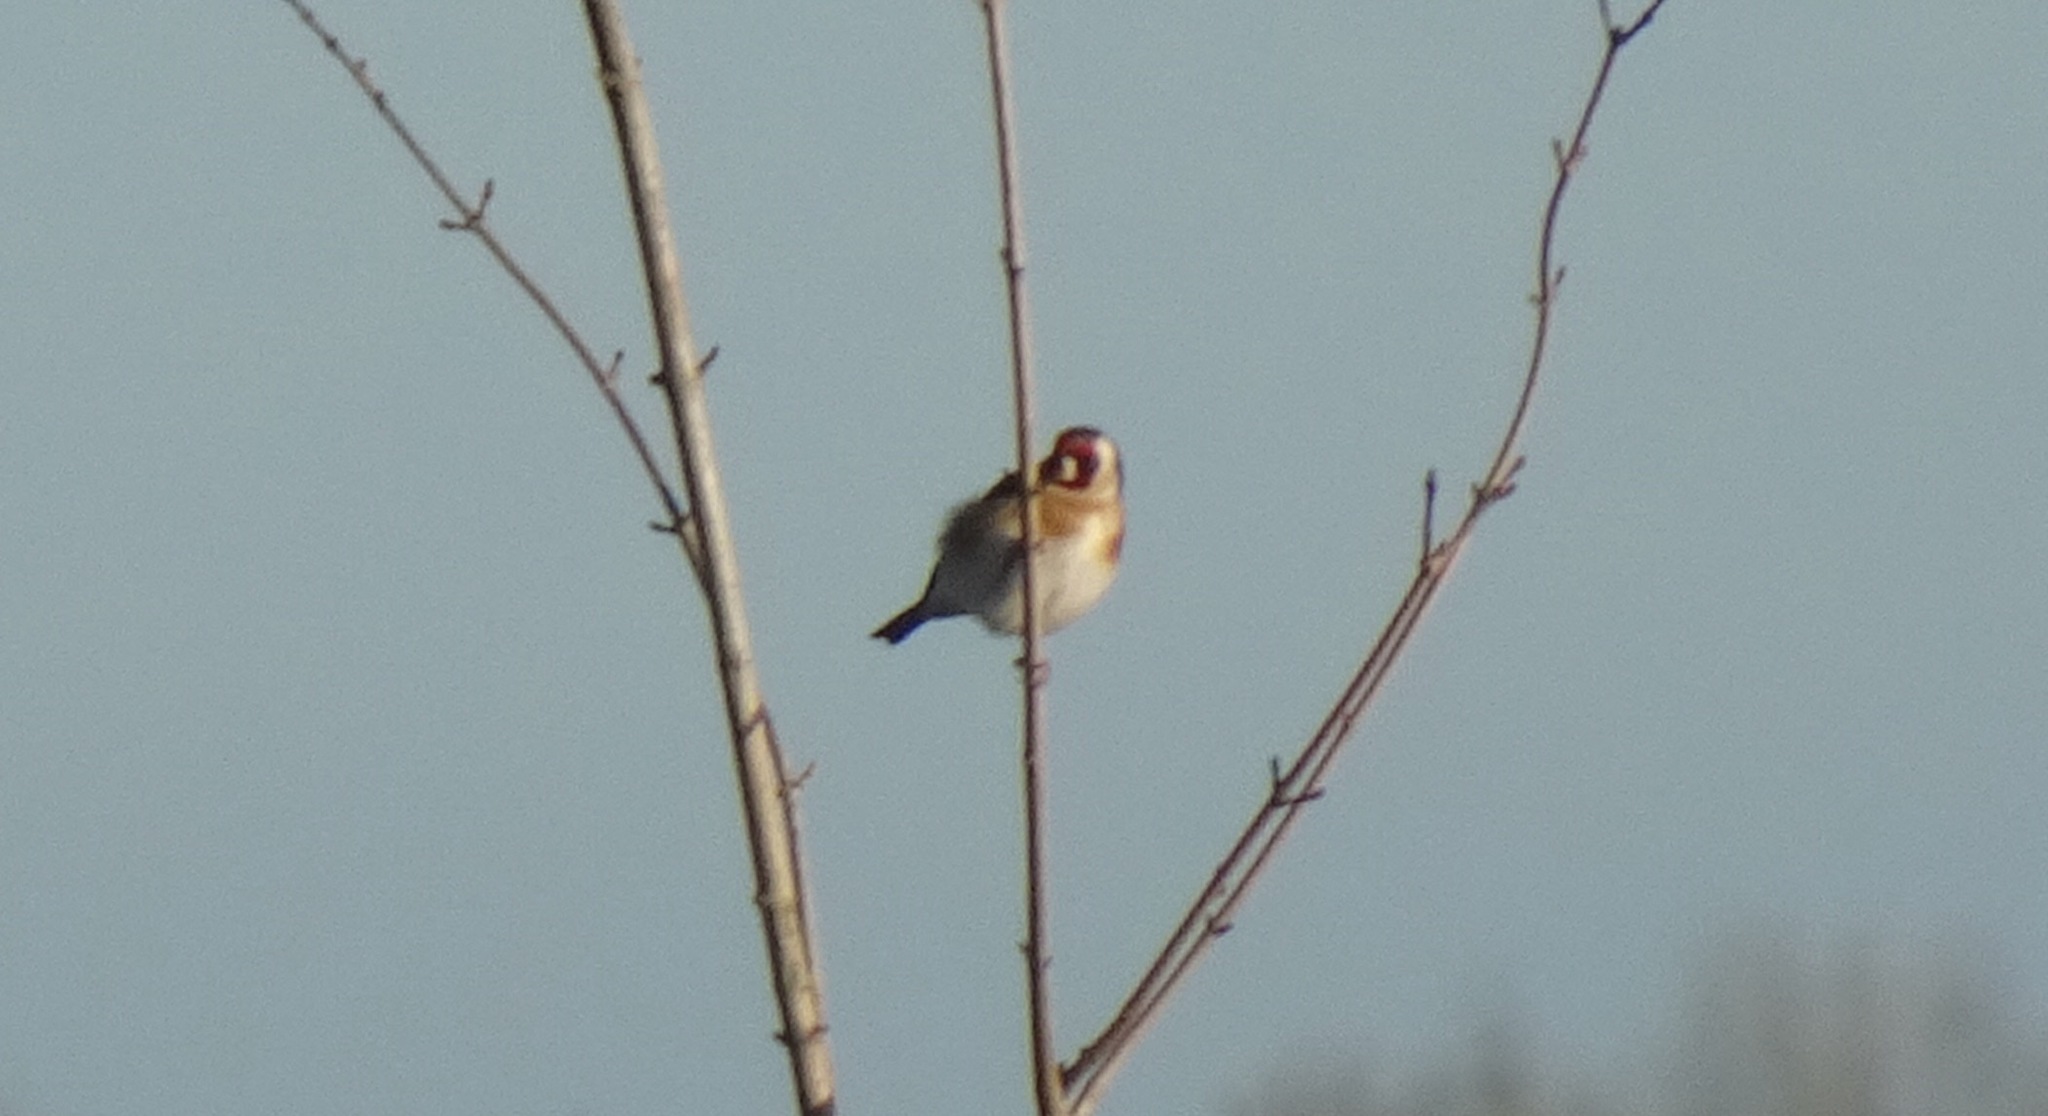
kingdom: Animalia
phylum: Chordata
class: Aves
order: Passeriformes
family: Fringillidae
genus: Carduelis
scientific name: Carduelis carduelis
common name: European goldfinch
